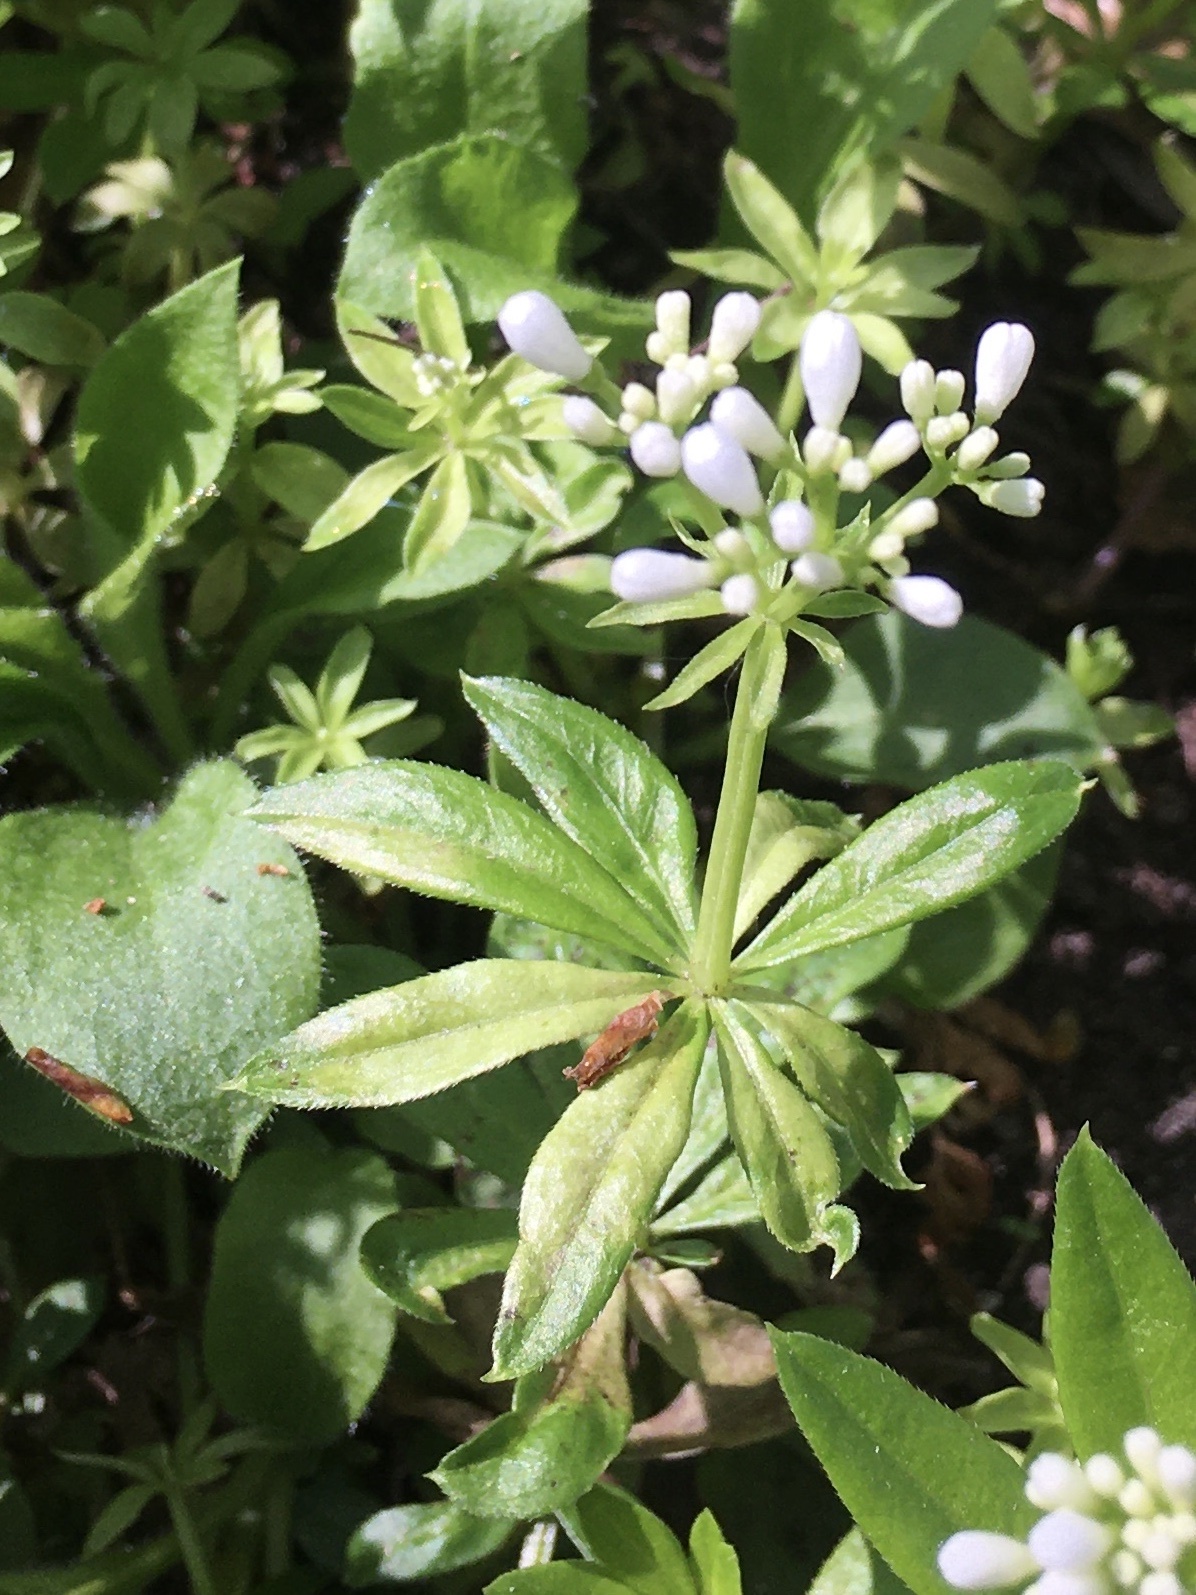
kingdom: Plantae
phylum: Tracheophyta
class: Magnoliopsida
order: Gentianales
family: Rubiaceae
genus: Galium
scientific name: Galium odoratum
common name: Sweet woodruff
